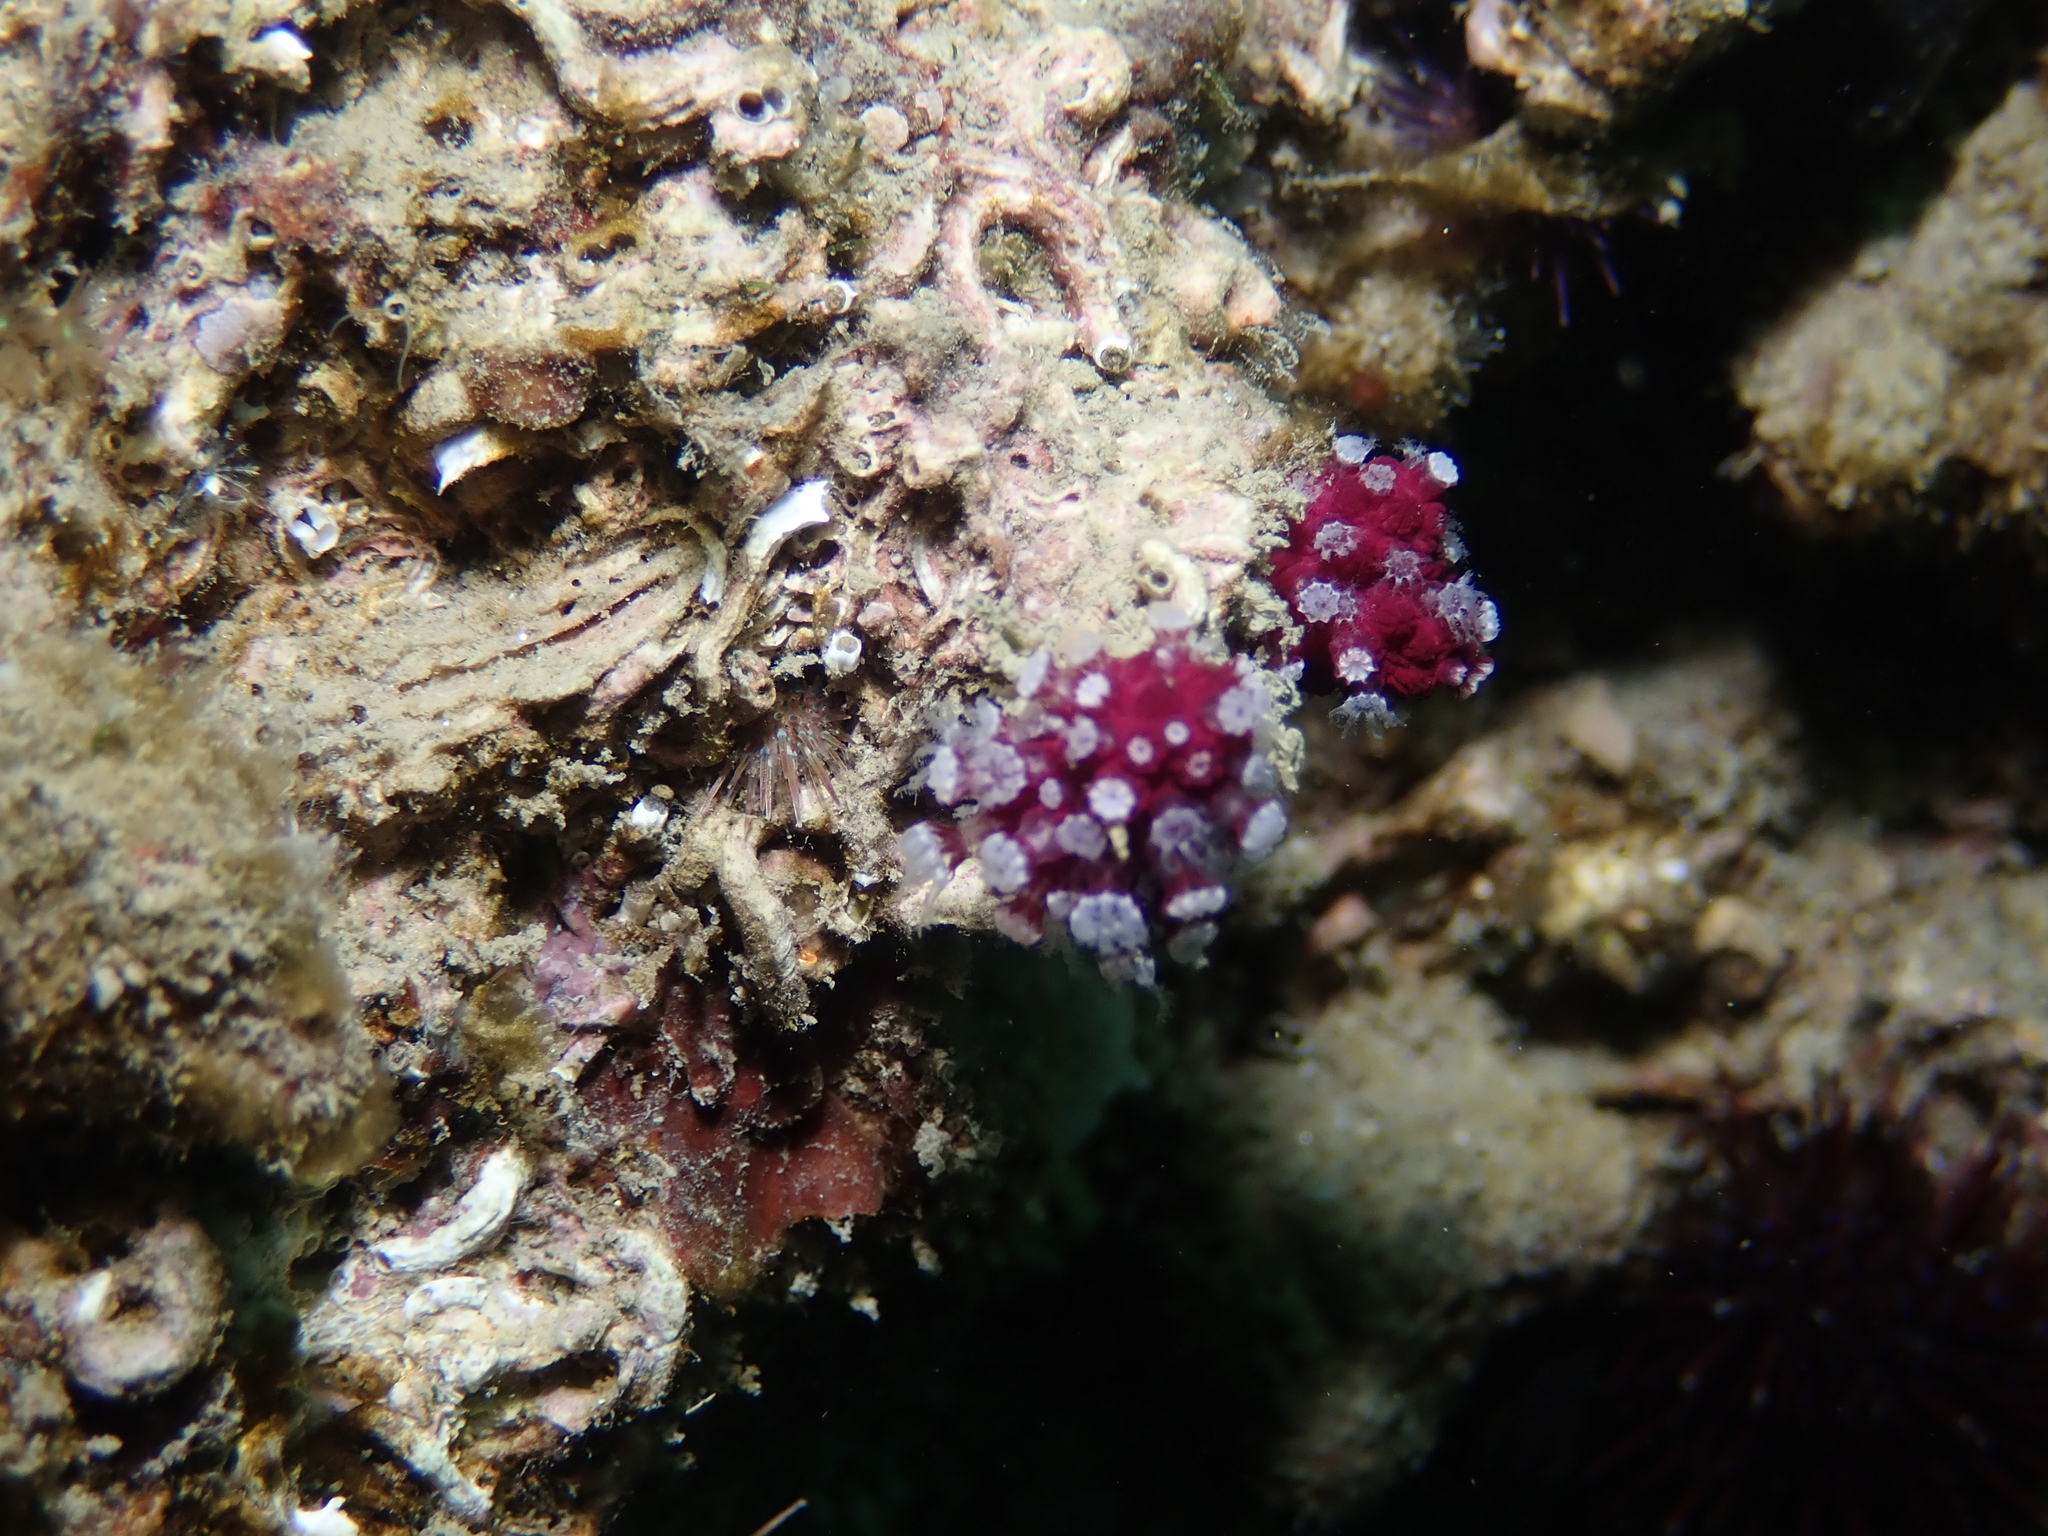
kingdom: Animalia
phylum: Cnidaria
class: Anthozoa
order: Malacalcyonacea
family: Alcyoniidae
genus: Alcyonium
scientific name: Alcyonium coralloides
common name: Soft coral
